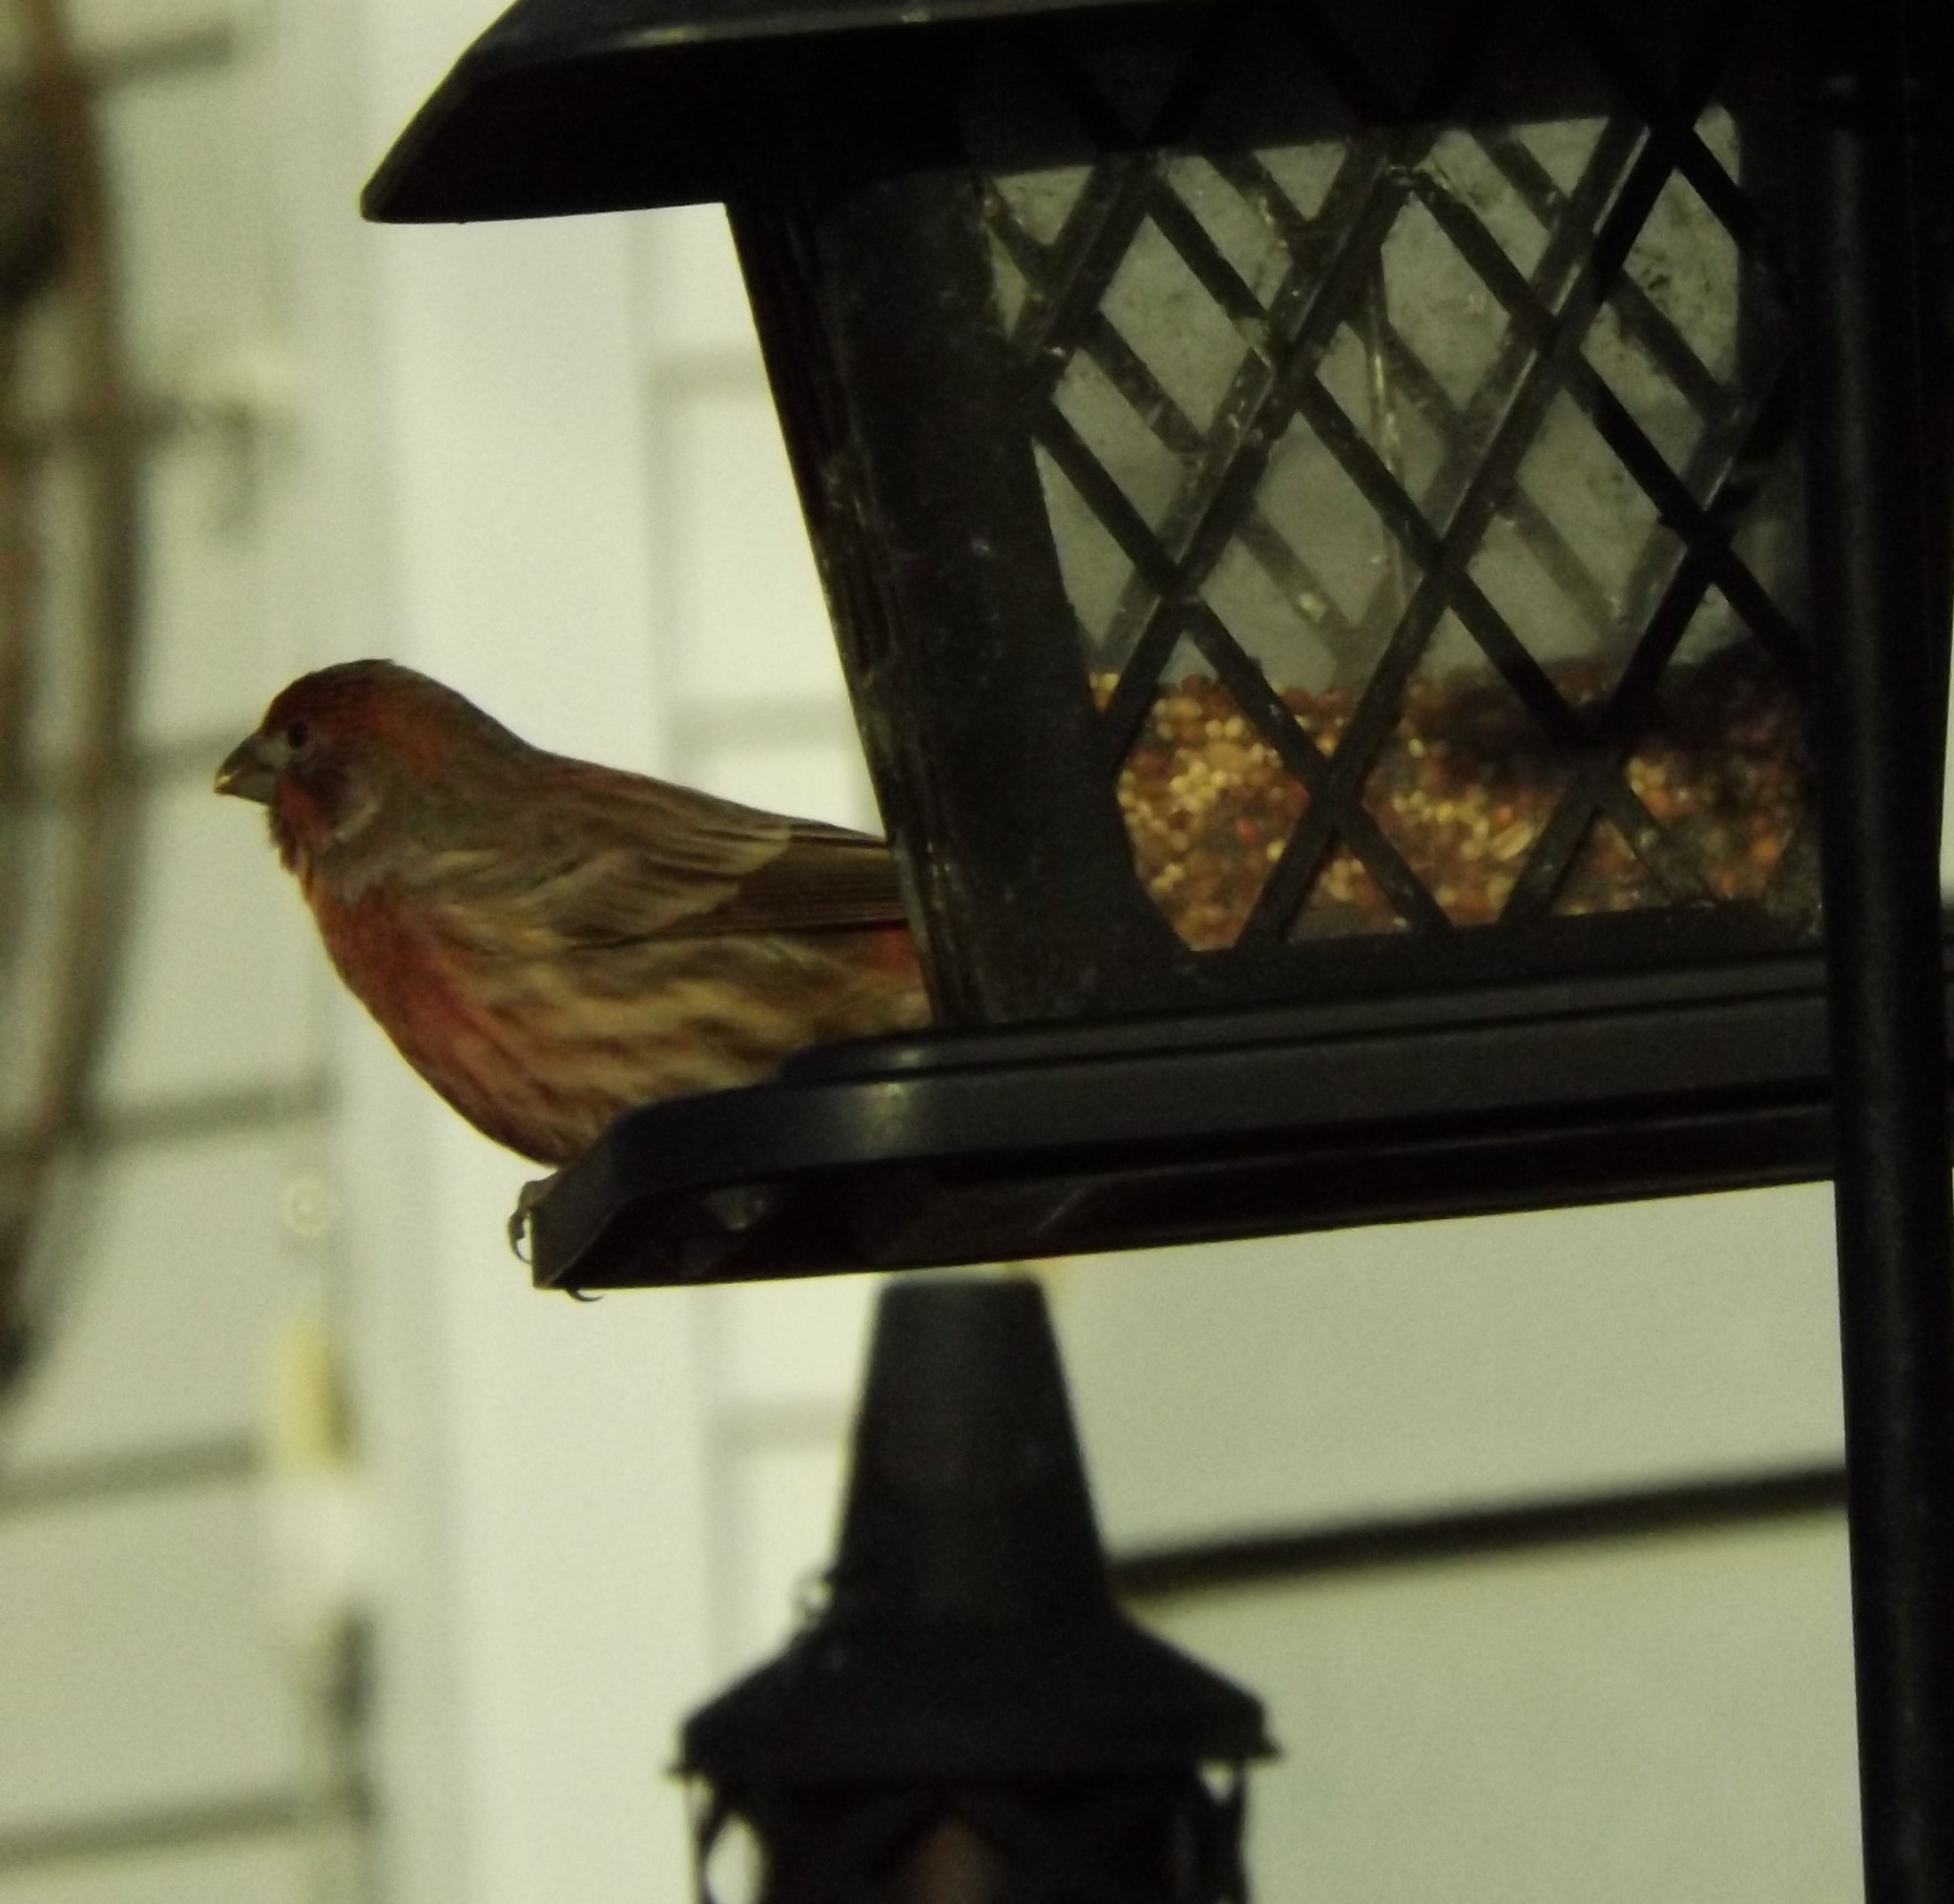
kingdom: Animalia
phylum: Chordata
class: Aves
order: Passeriformes
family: Fringillidae
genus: Haemorhous
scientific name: Haemorhous mexicanus
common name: House finch
